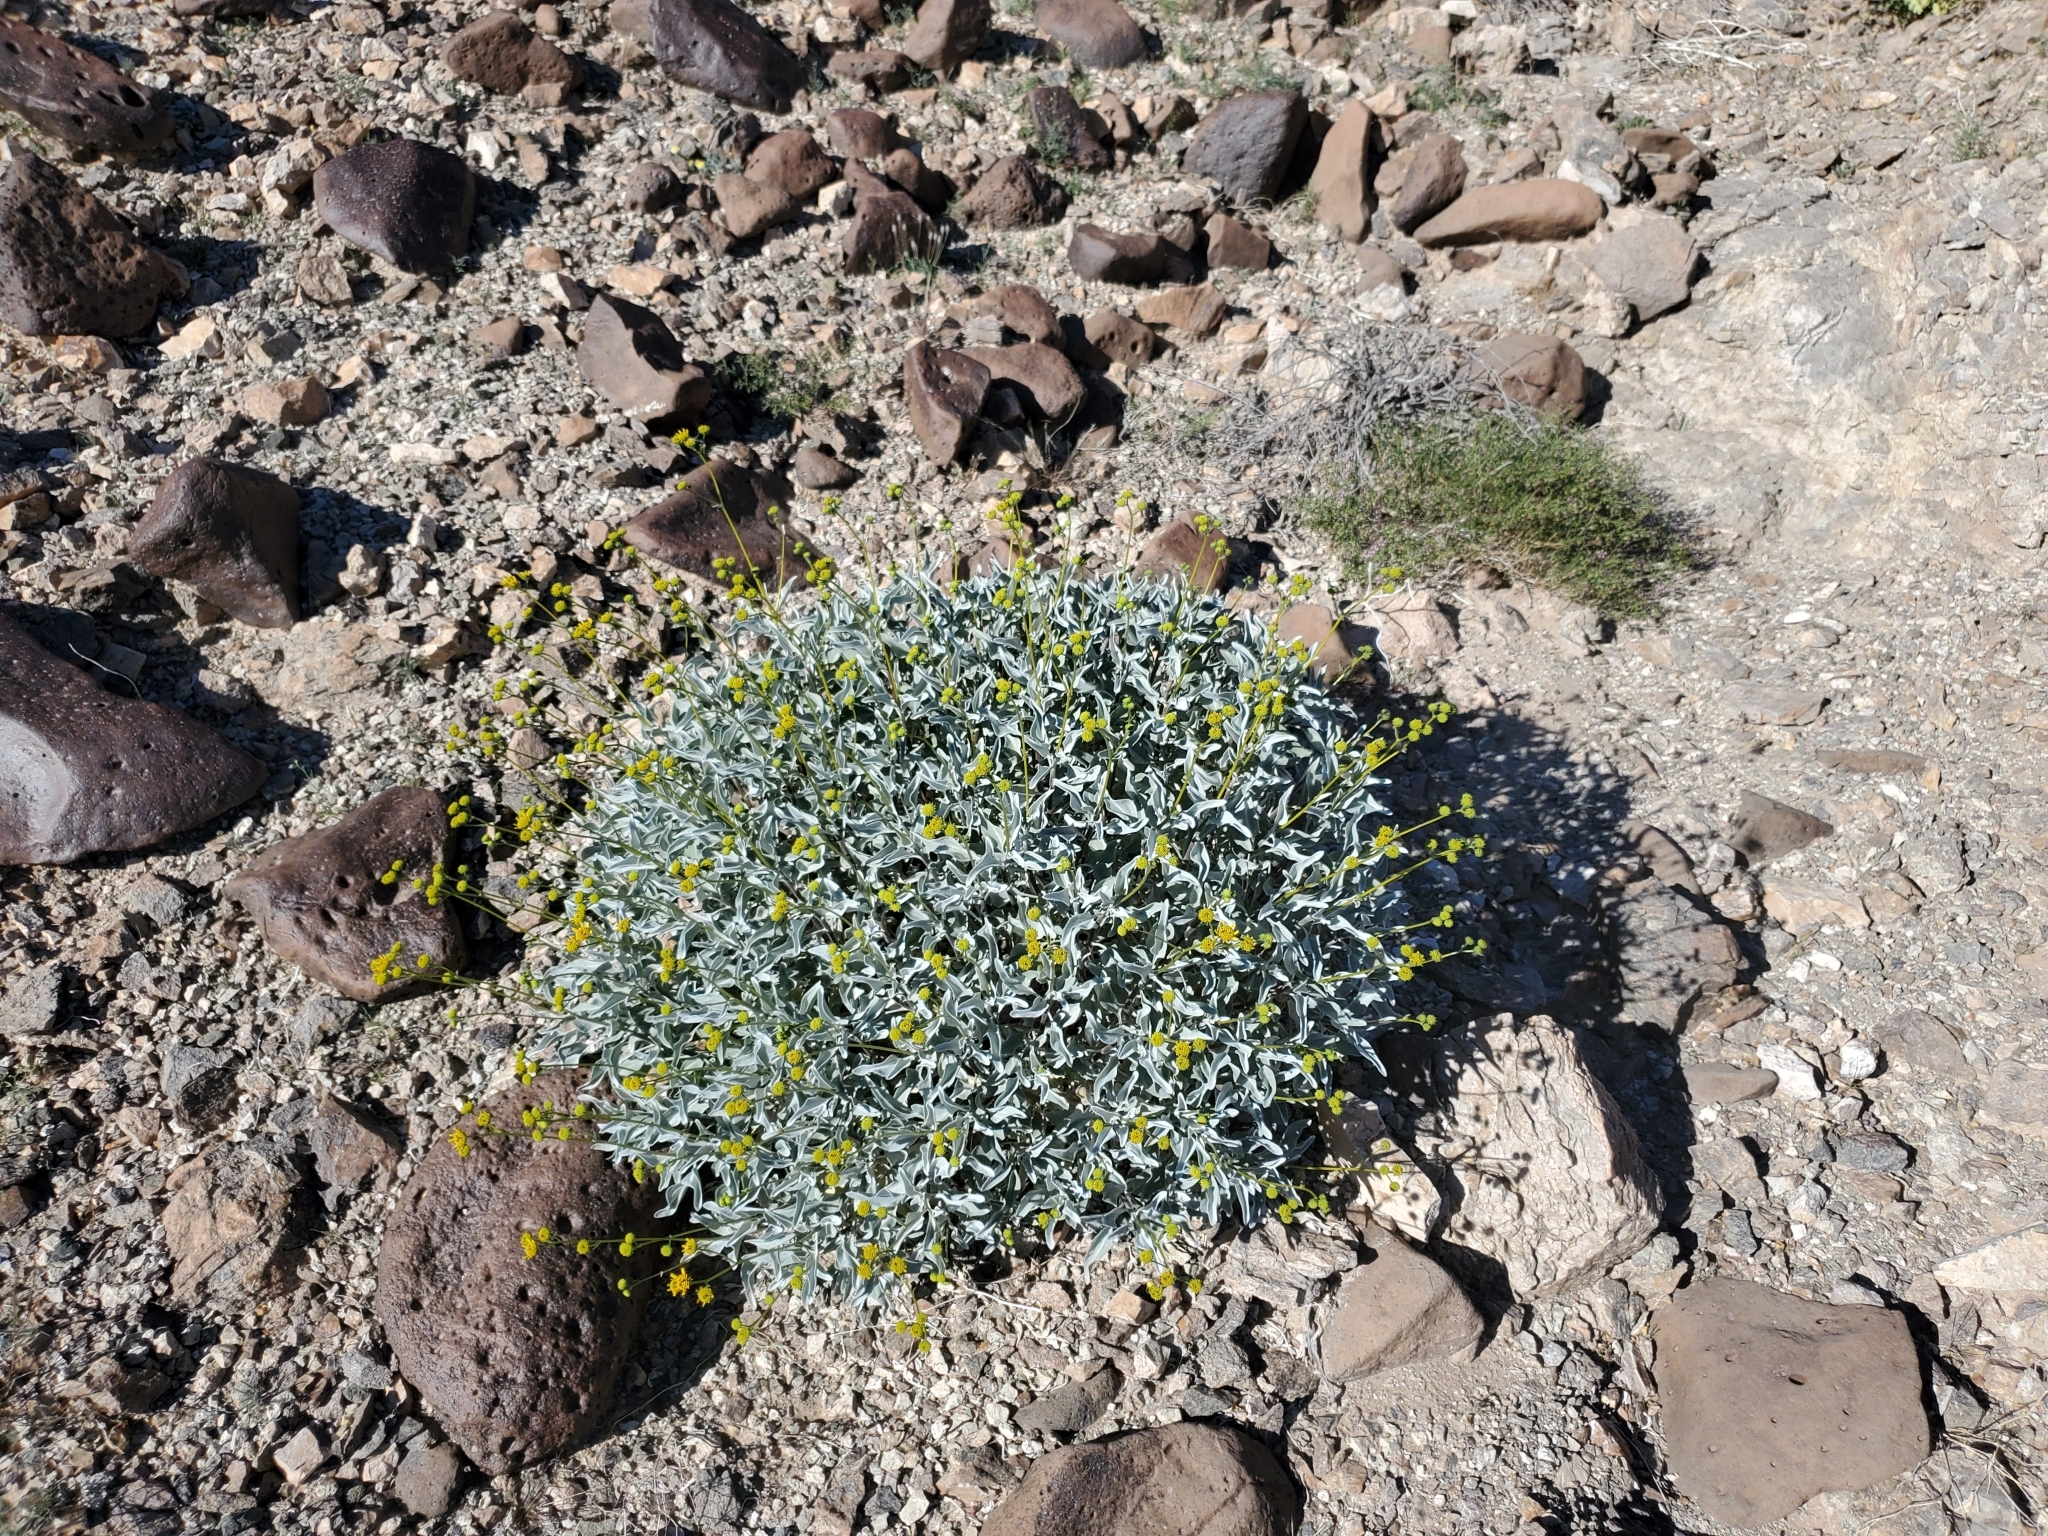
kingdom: Plantae
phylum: Tracheophyta
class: Magnoliopsida
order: Asterales
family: Asteraceae
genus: Encelia
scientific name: Encelia farinosa
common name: Brittlebush
